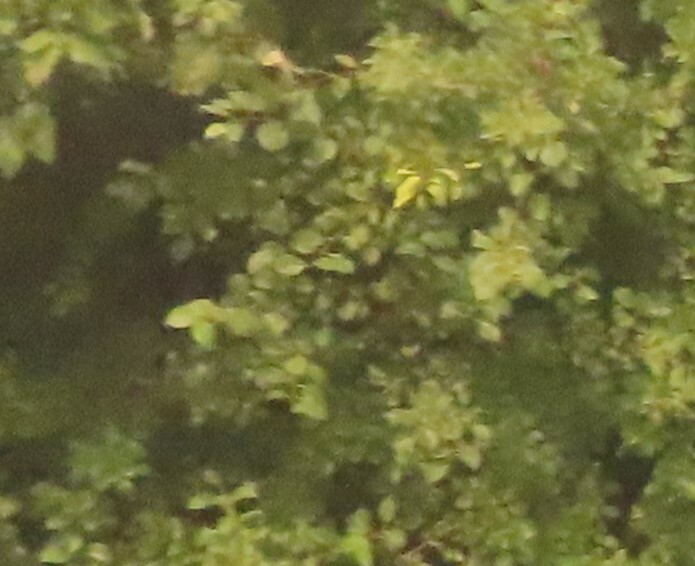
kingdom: Plantae
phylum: Tracheophyta
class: Magnoliopsida
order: Rosales
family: Rhamnaceae
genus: Rhamnus
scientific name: Rhamnus cathartica
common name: Common buckthorn
